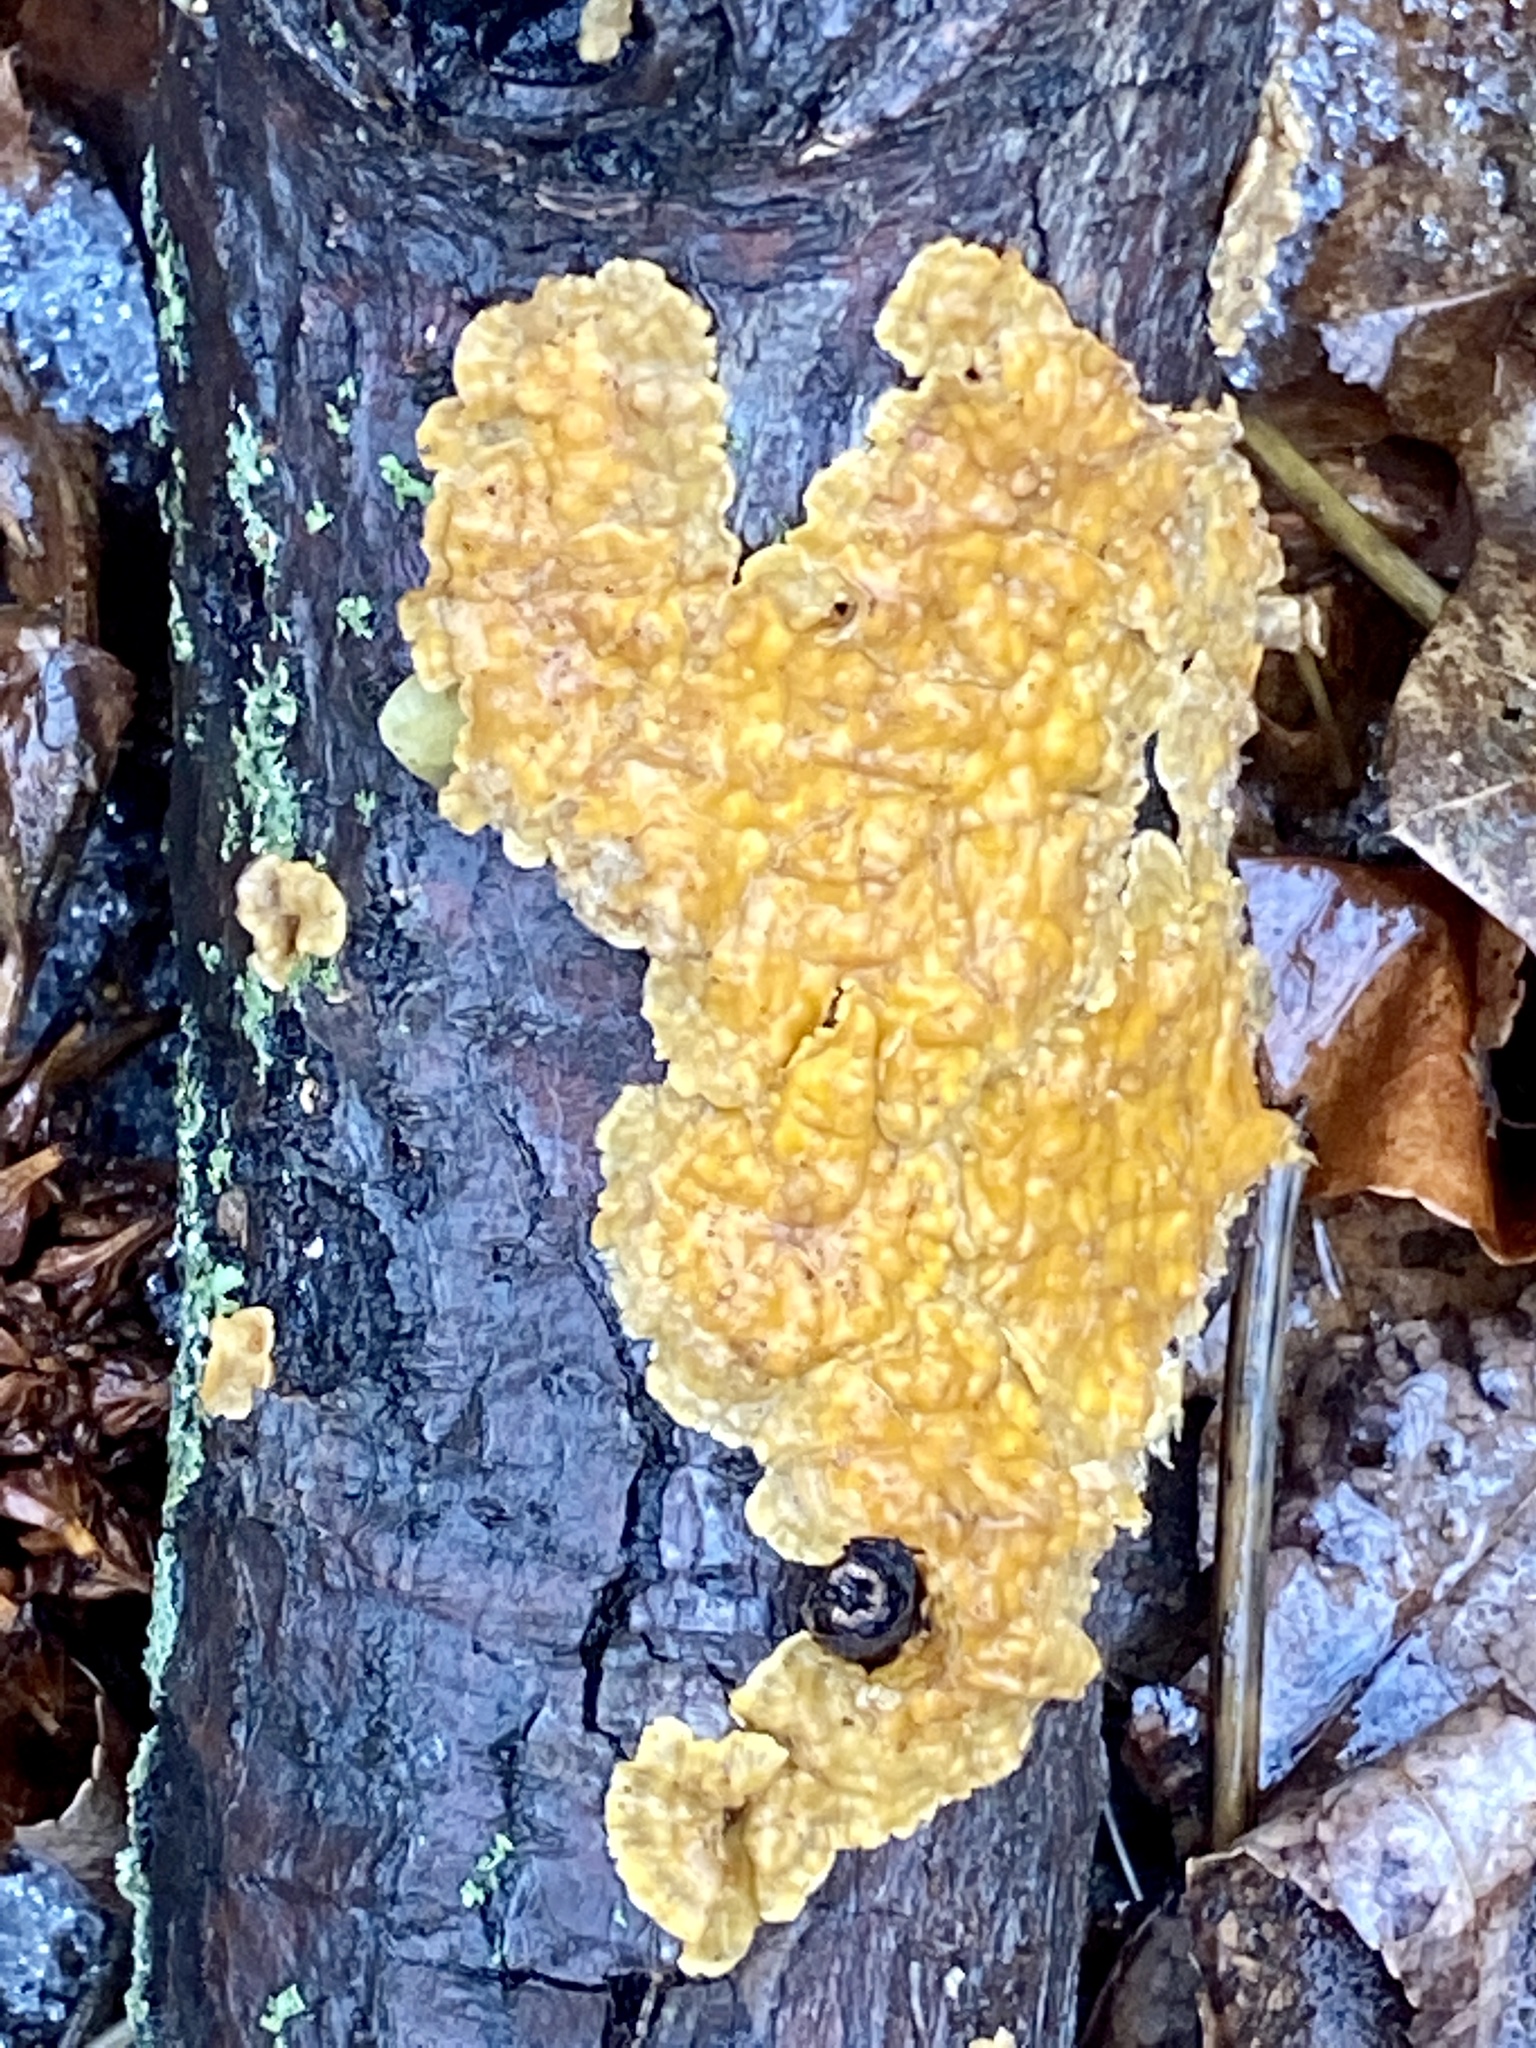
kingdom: Fungi
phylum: Basidiomycota
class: Agaricomycetes
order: Russulales
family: Stereaceae
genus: Stereum
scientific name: Stereum complicatum
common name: Crowded parchment
